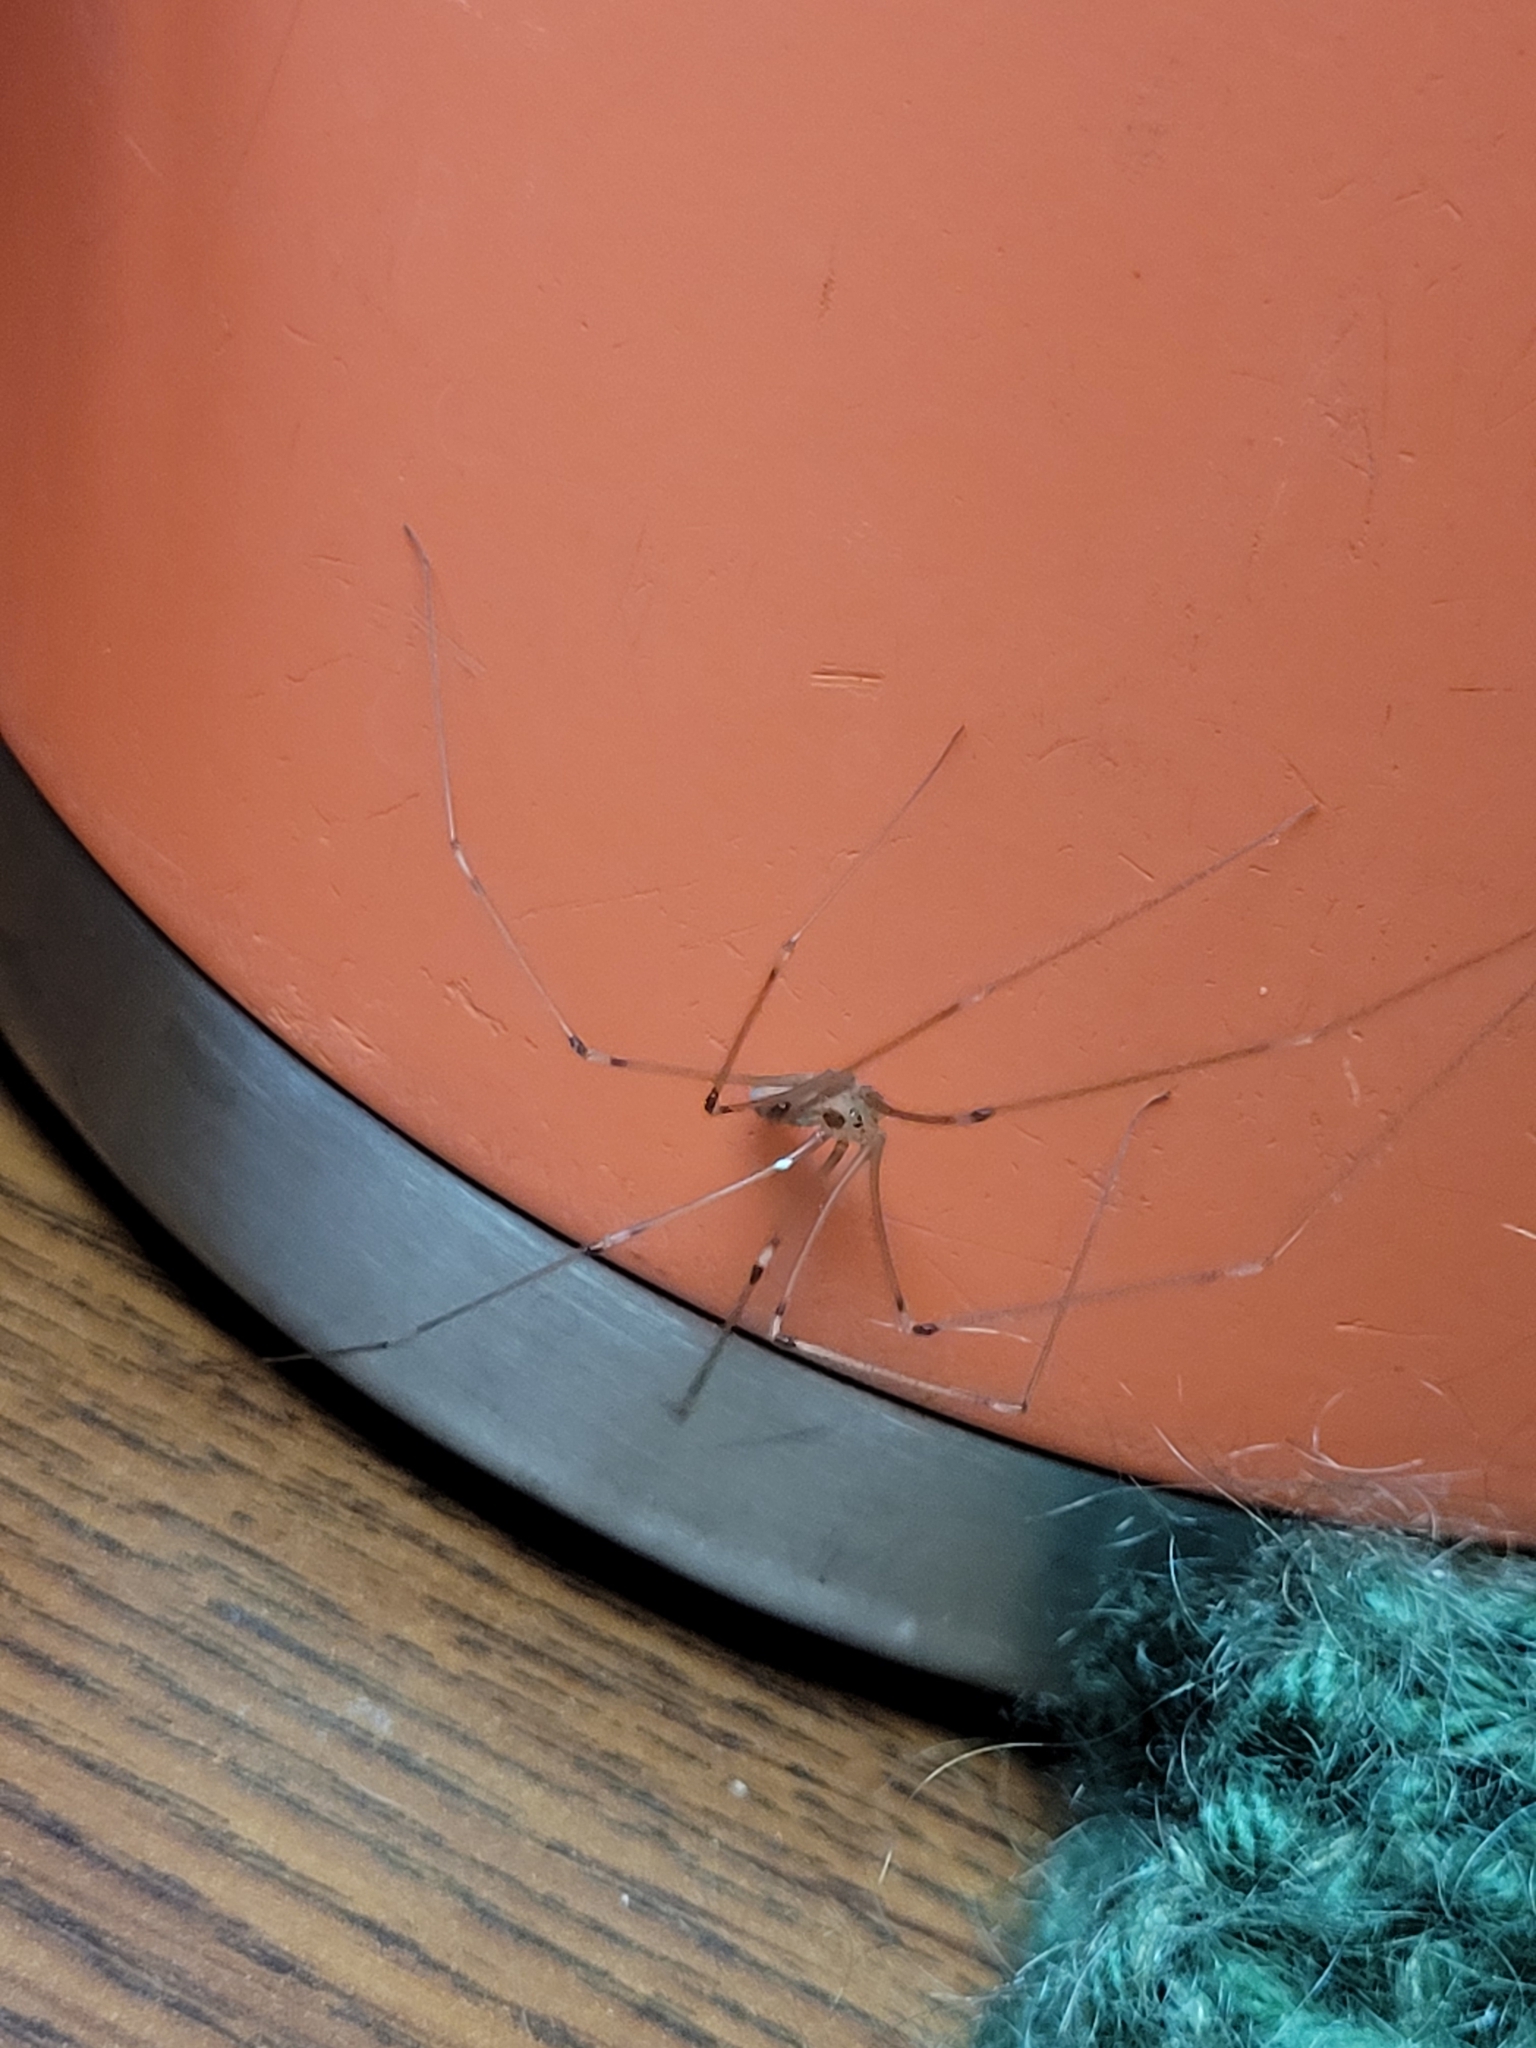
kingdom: Animalia
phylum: Arthropoda
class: Arachnida
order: Araneae
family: Pholcidae
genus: Pholcus
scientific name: Pholcus phalangioides
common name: Longbodied cellar spider
